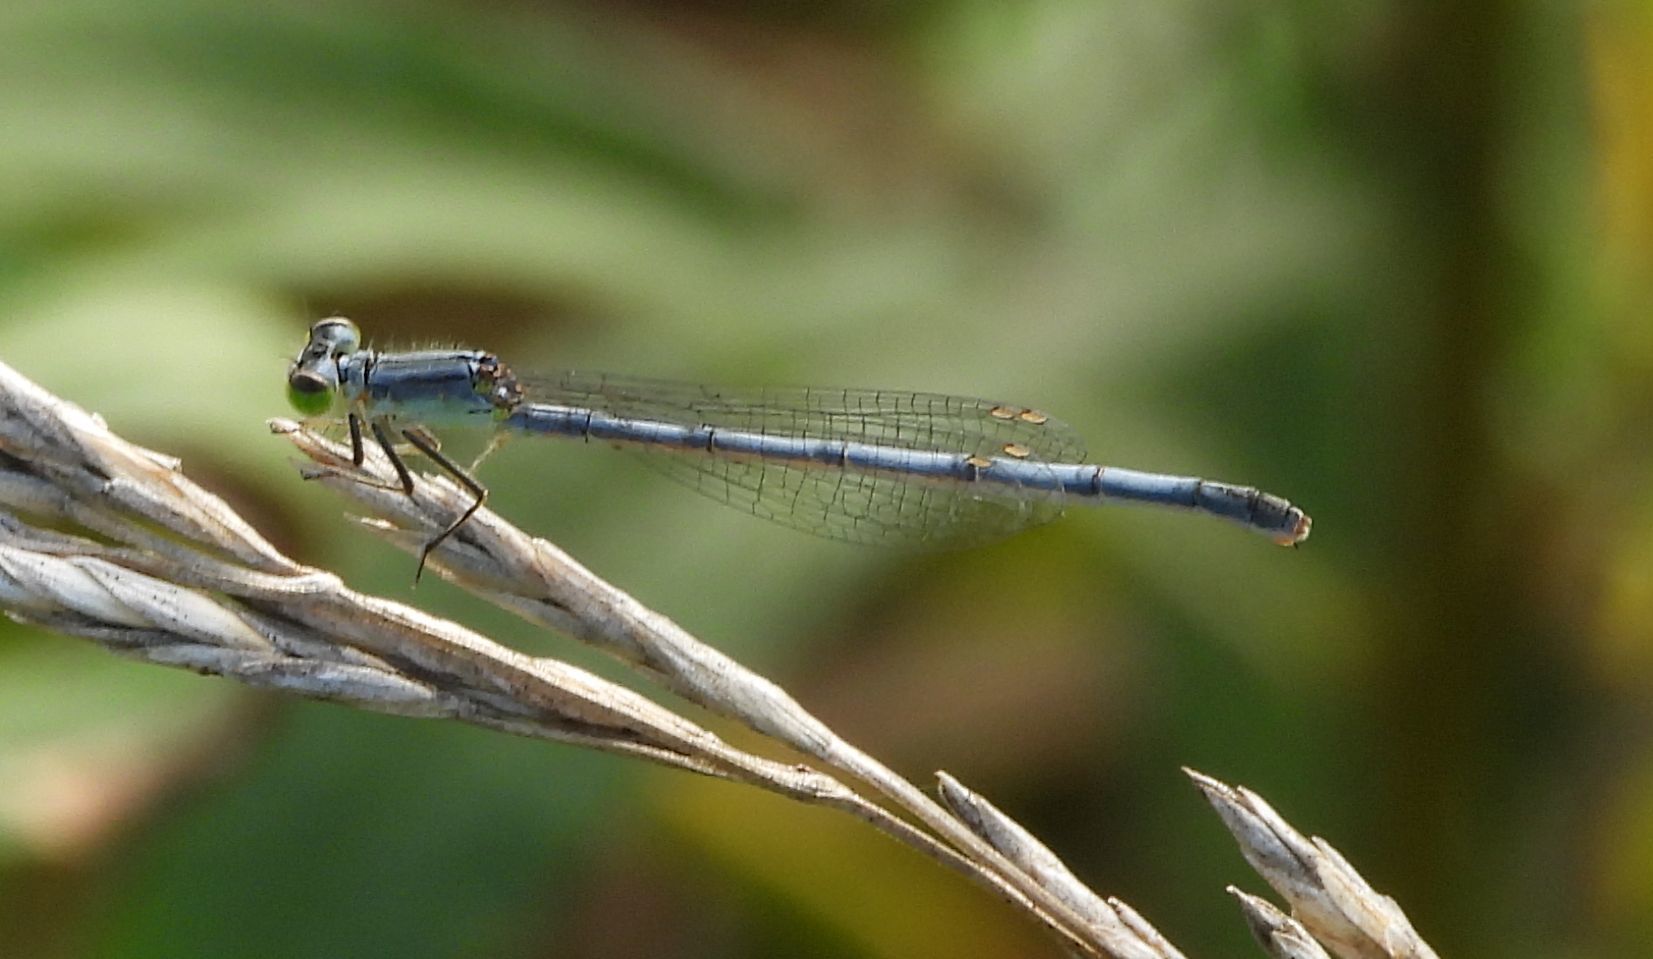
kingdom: Animalia
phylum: Arthropoda
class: Insecta
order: Odonata
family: Coenagrionidae
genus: Ischnura
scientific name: Ischnura verticalis
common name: Eastern forktail
